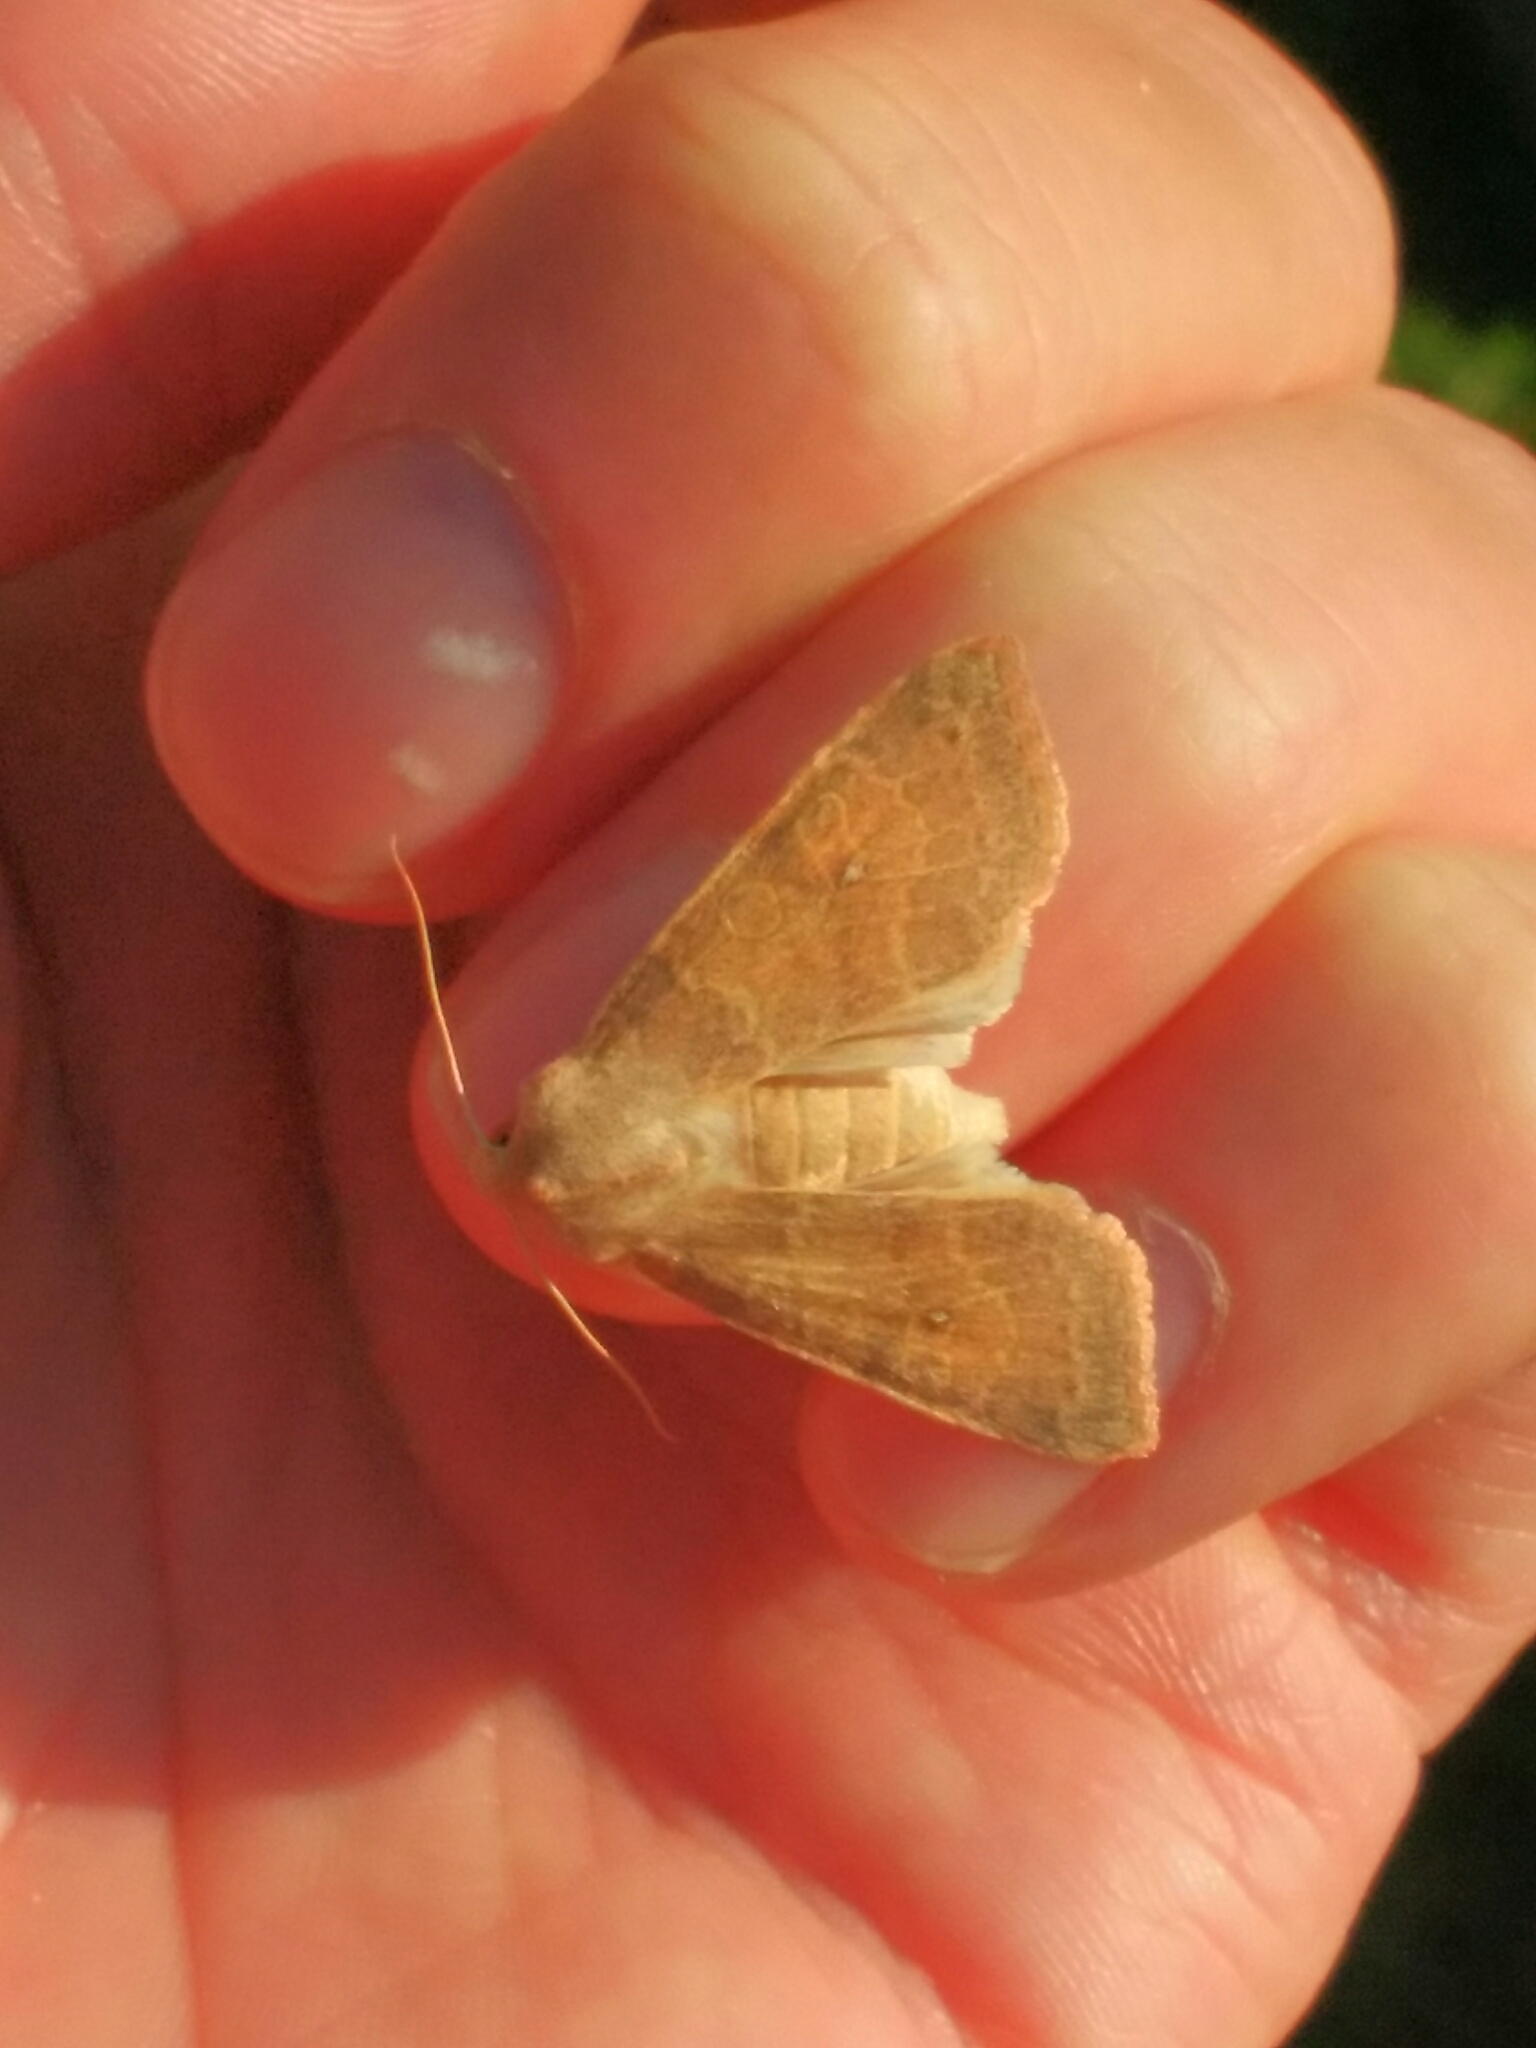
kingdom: Animalia
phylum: Arthropoda
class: Insecta
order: Lepidoptera
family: Noctuidae
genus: Xanthia
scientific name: Xanthia ocellaris
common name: Pale-lemon sallow
